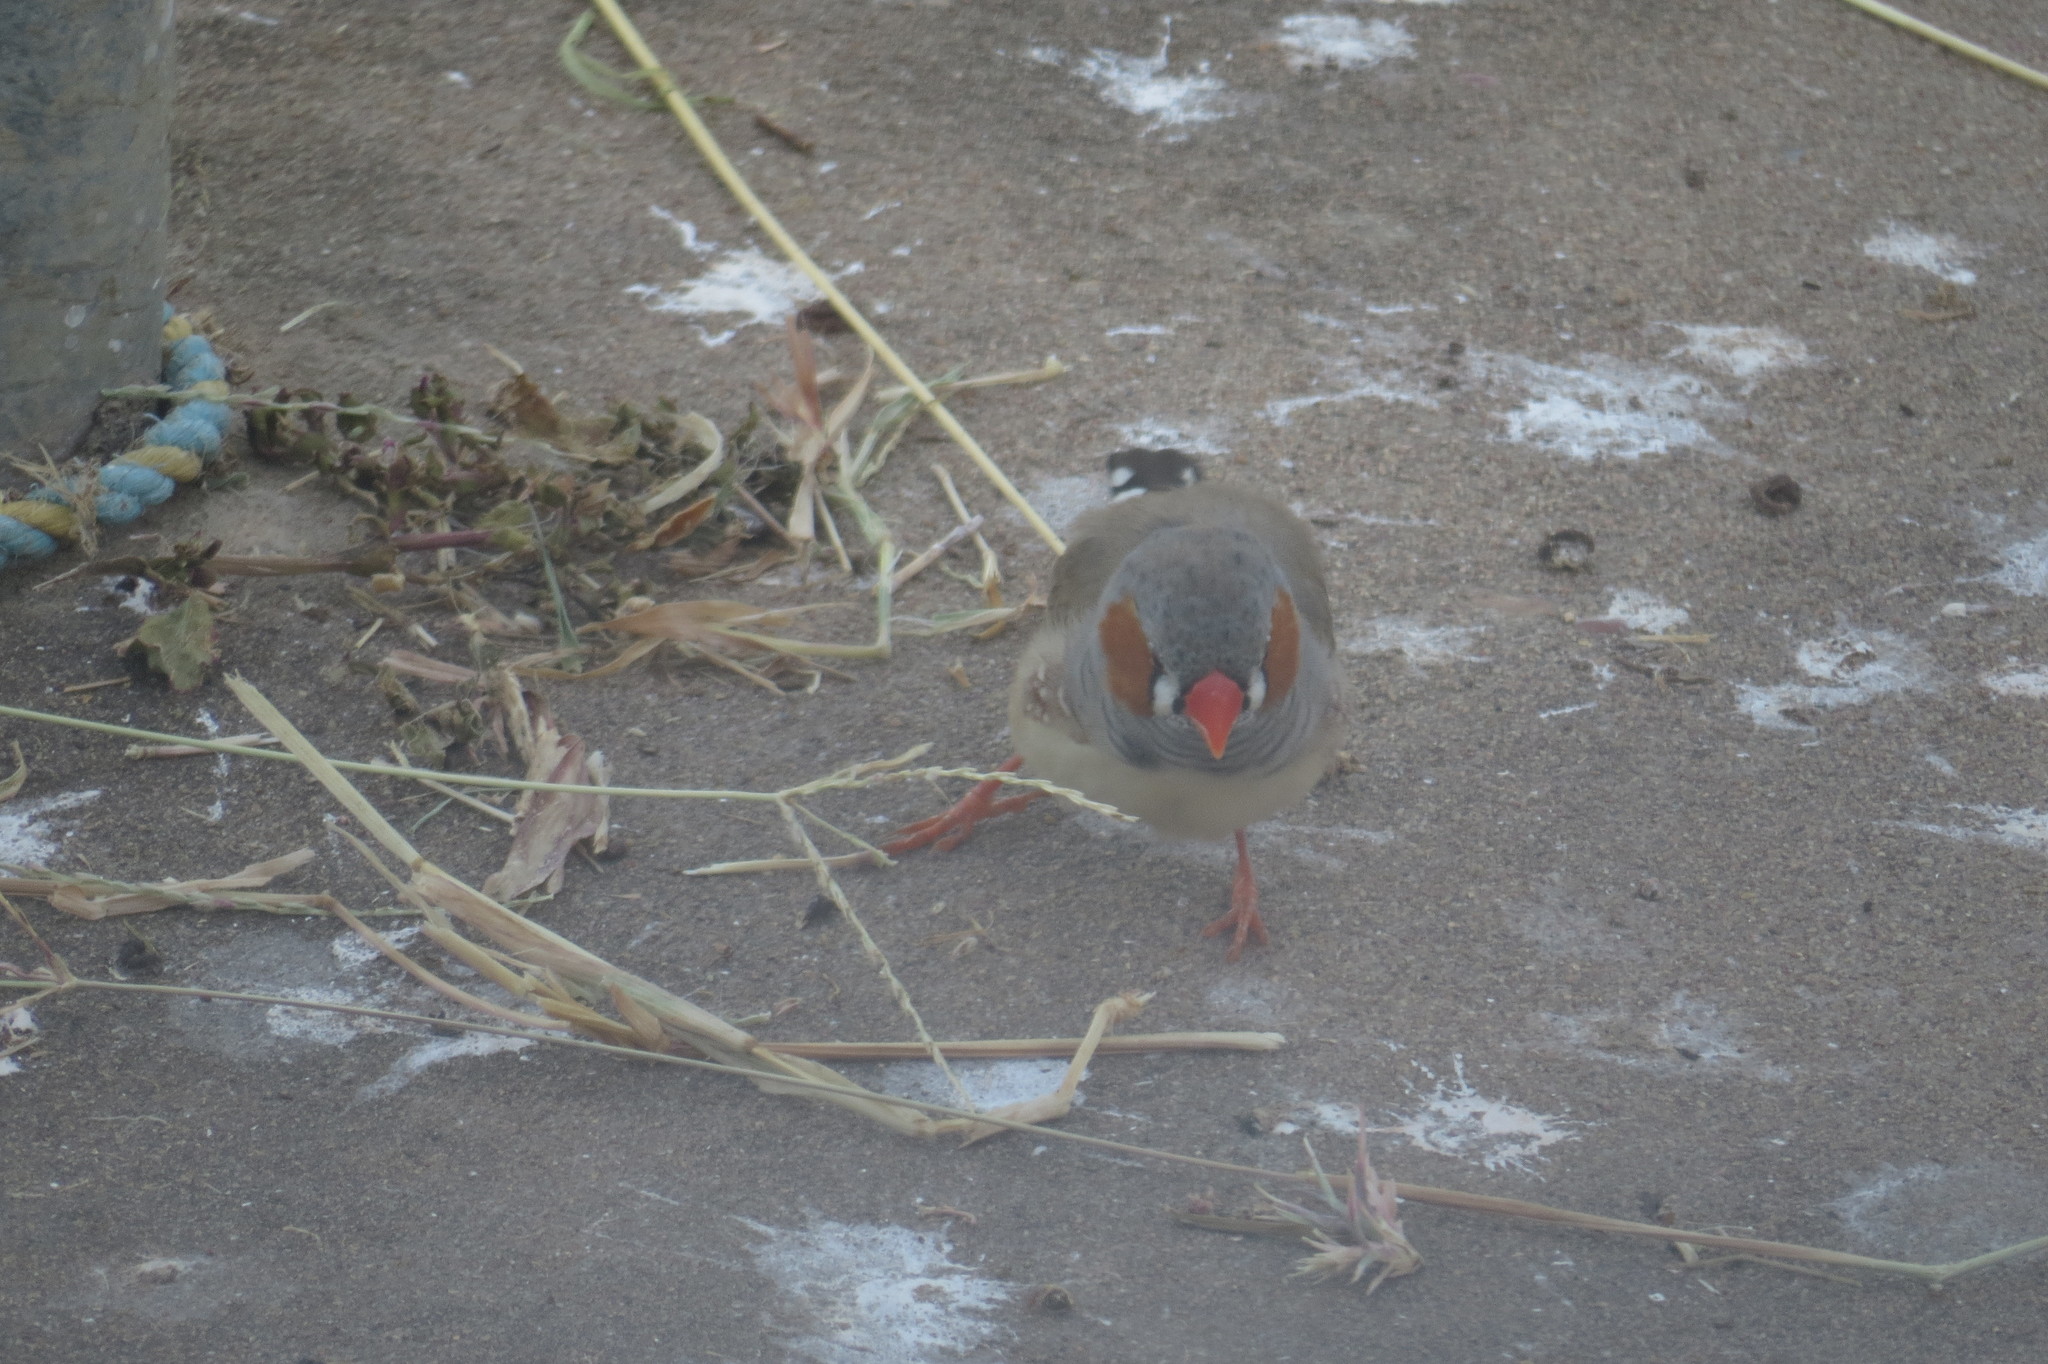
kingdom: Animalia
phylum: Chordata
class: Aves
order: Passeriformes
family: Estrildidae
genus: Taeniopygia
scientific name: Taeniopygia guttata
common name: Zebra finch
